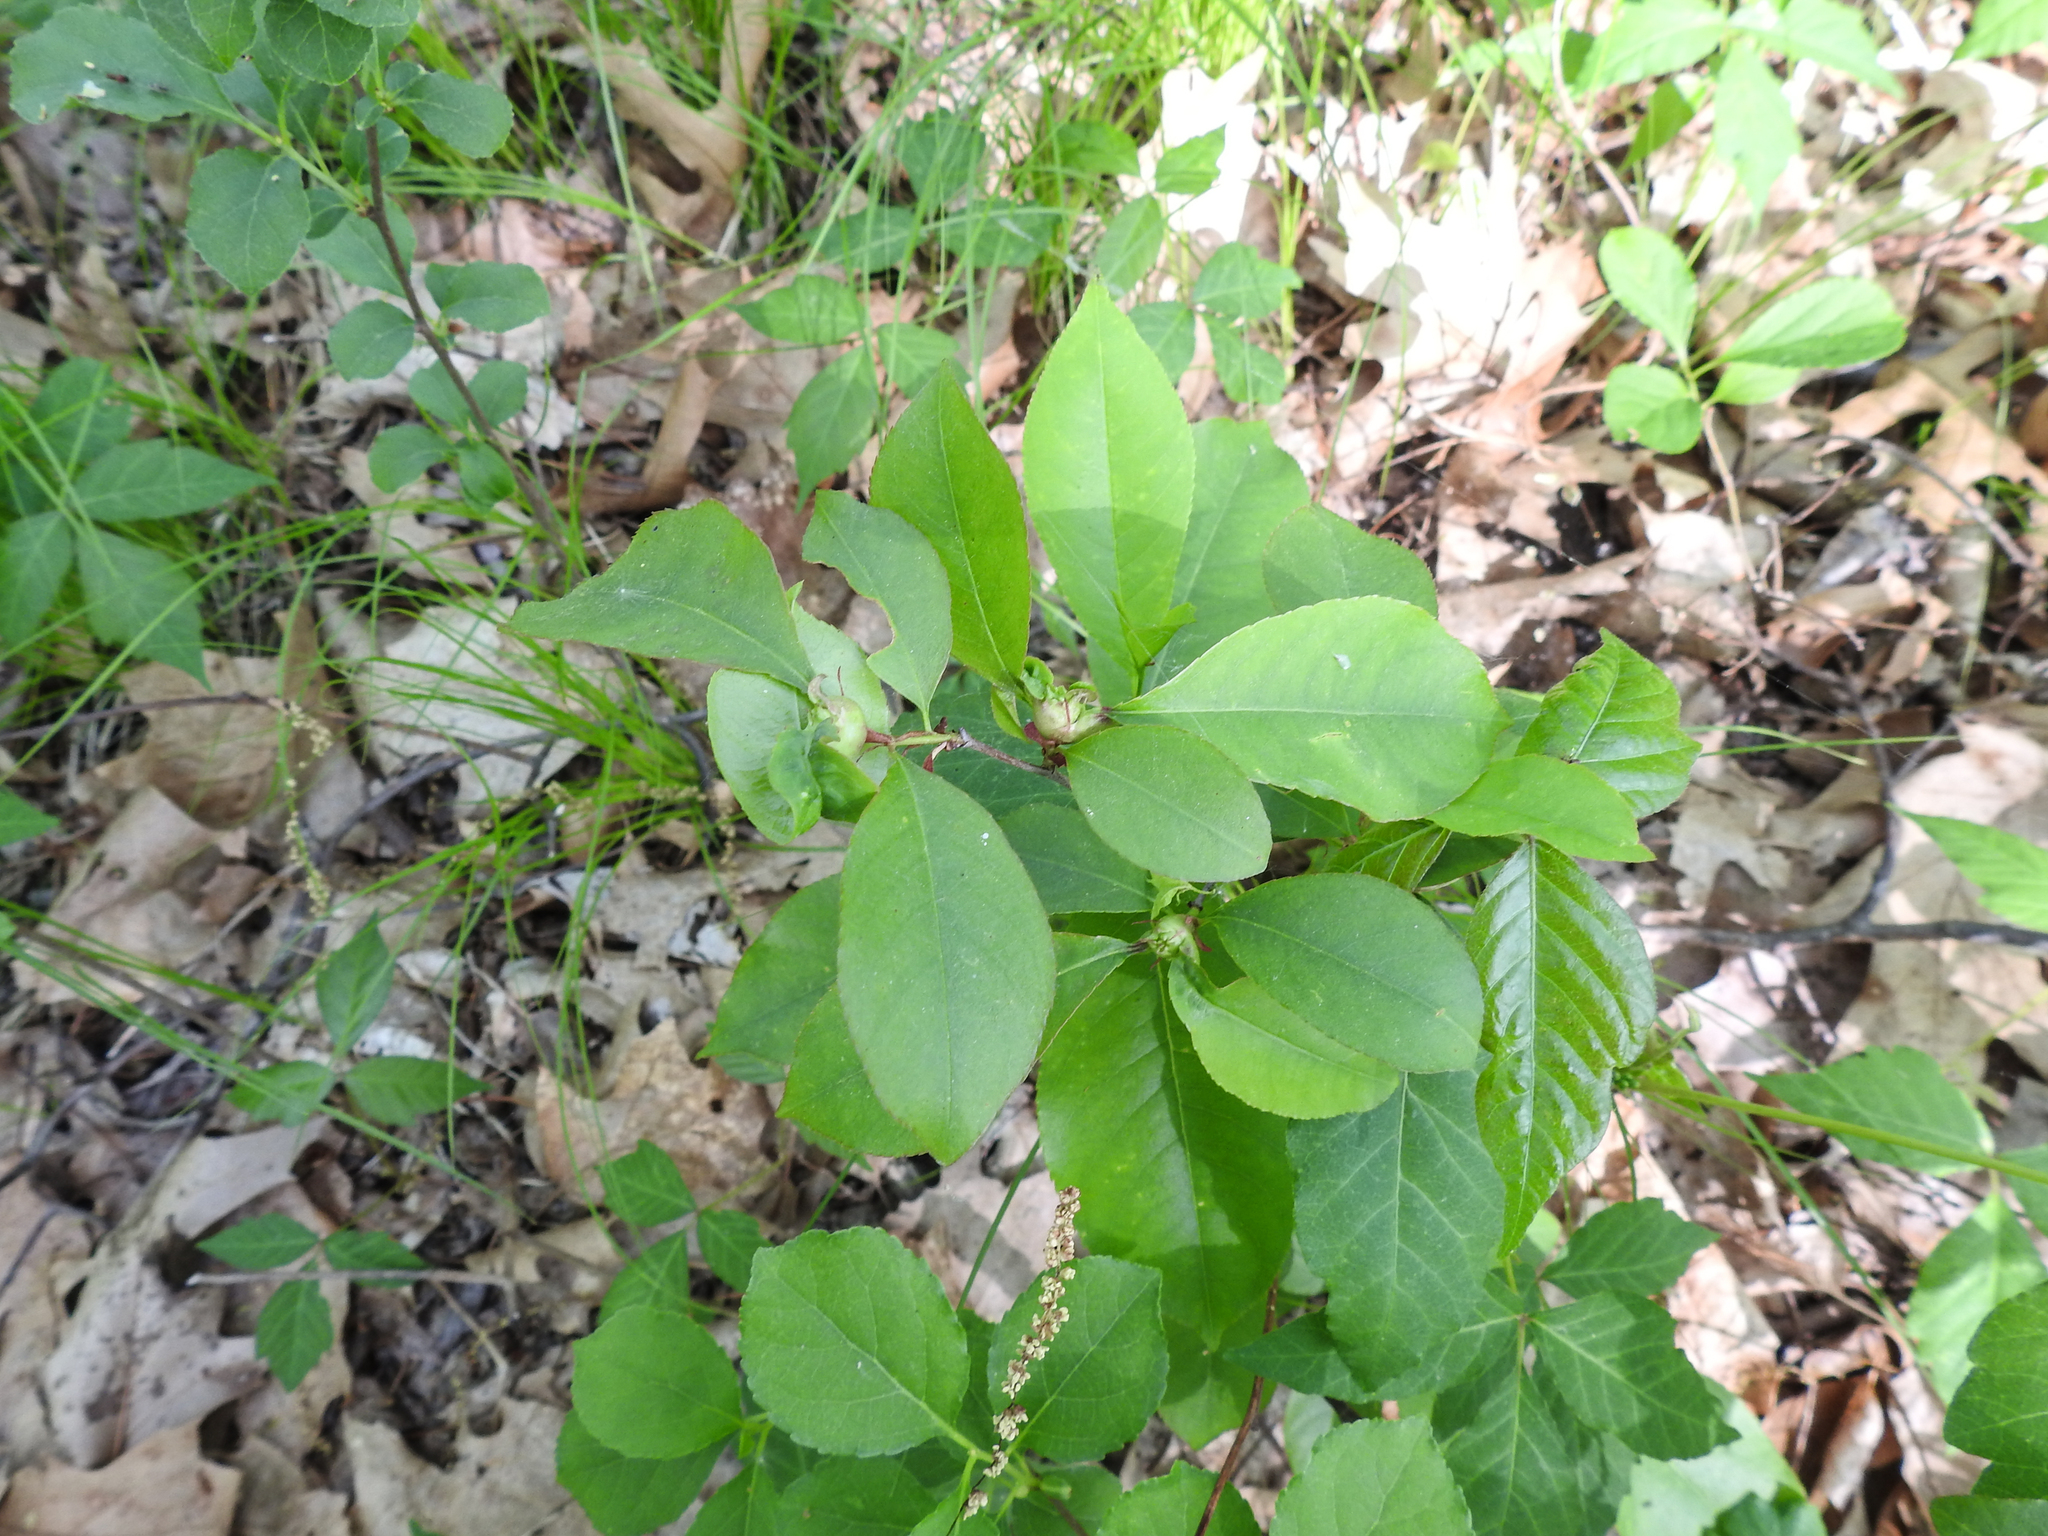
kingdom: Plantae
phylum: Tracheophyta
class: Magnoliopsida
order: Rosales
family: Rosaceae
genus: Prunus
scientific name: Prunus serotina
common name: Black cherry
